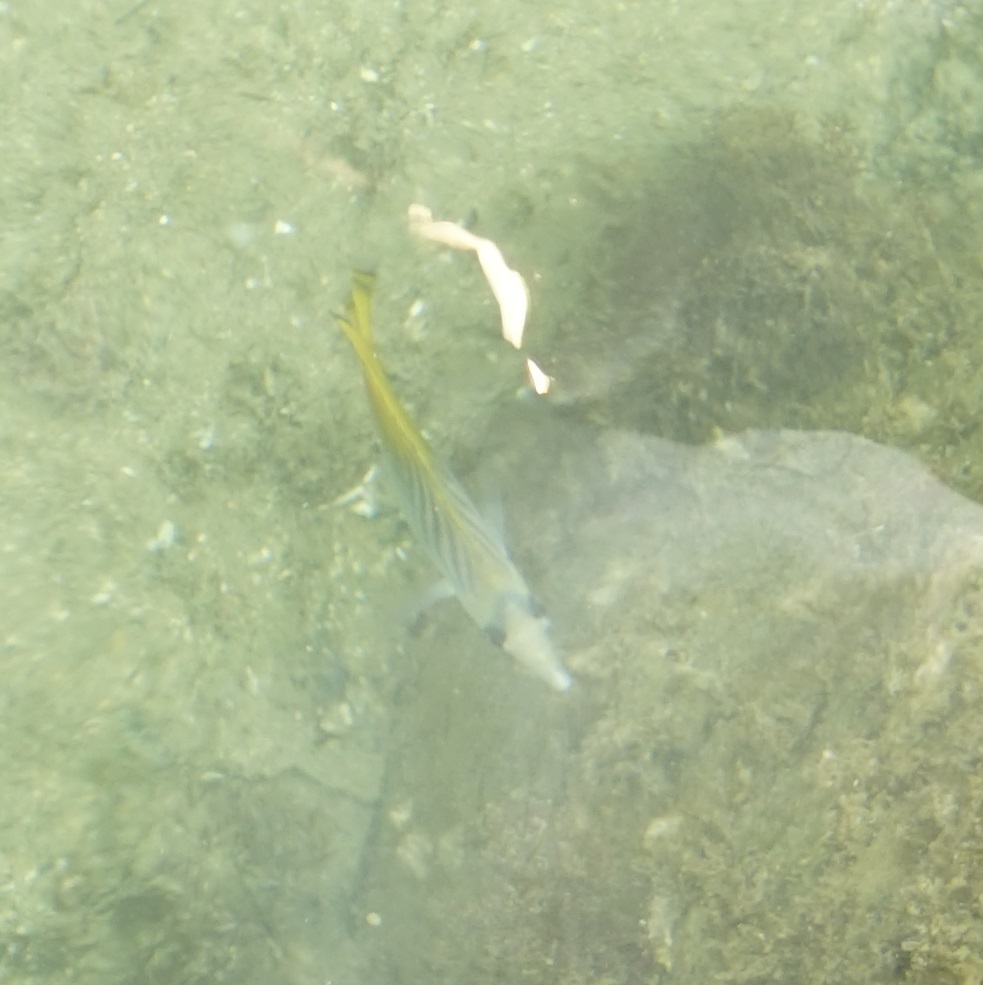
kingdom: Animalia
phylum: Chordata
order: Perciformes
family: Chaetodontidae
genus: Chaetodon
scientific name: Chaetodon auriga
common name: Threadfin butterflyfish
